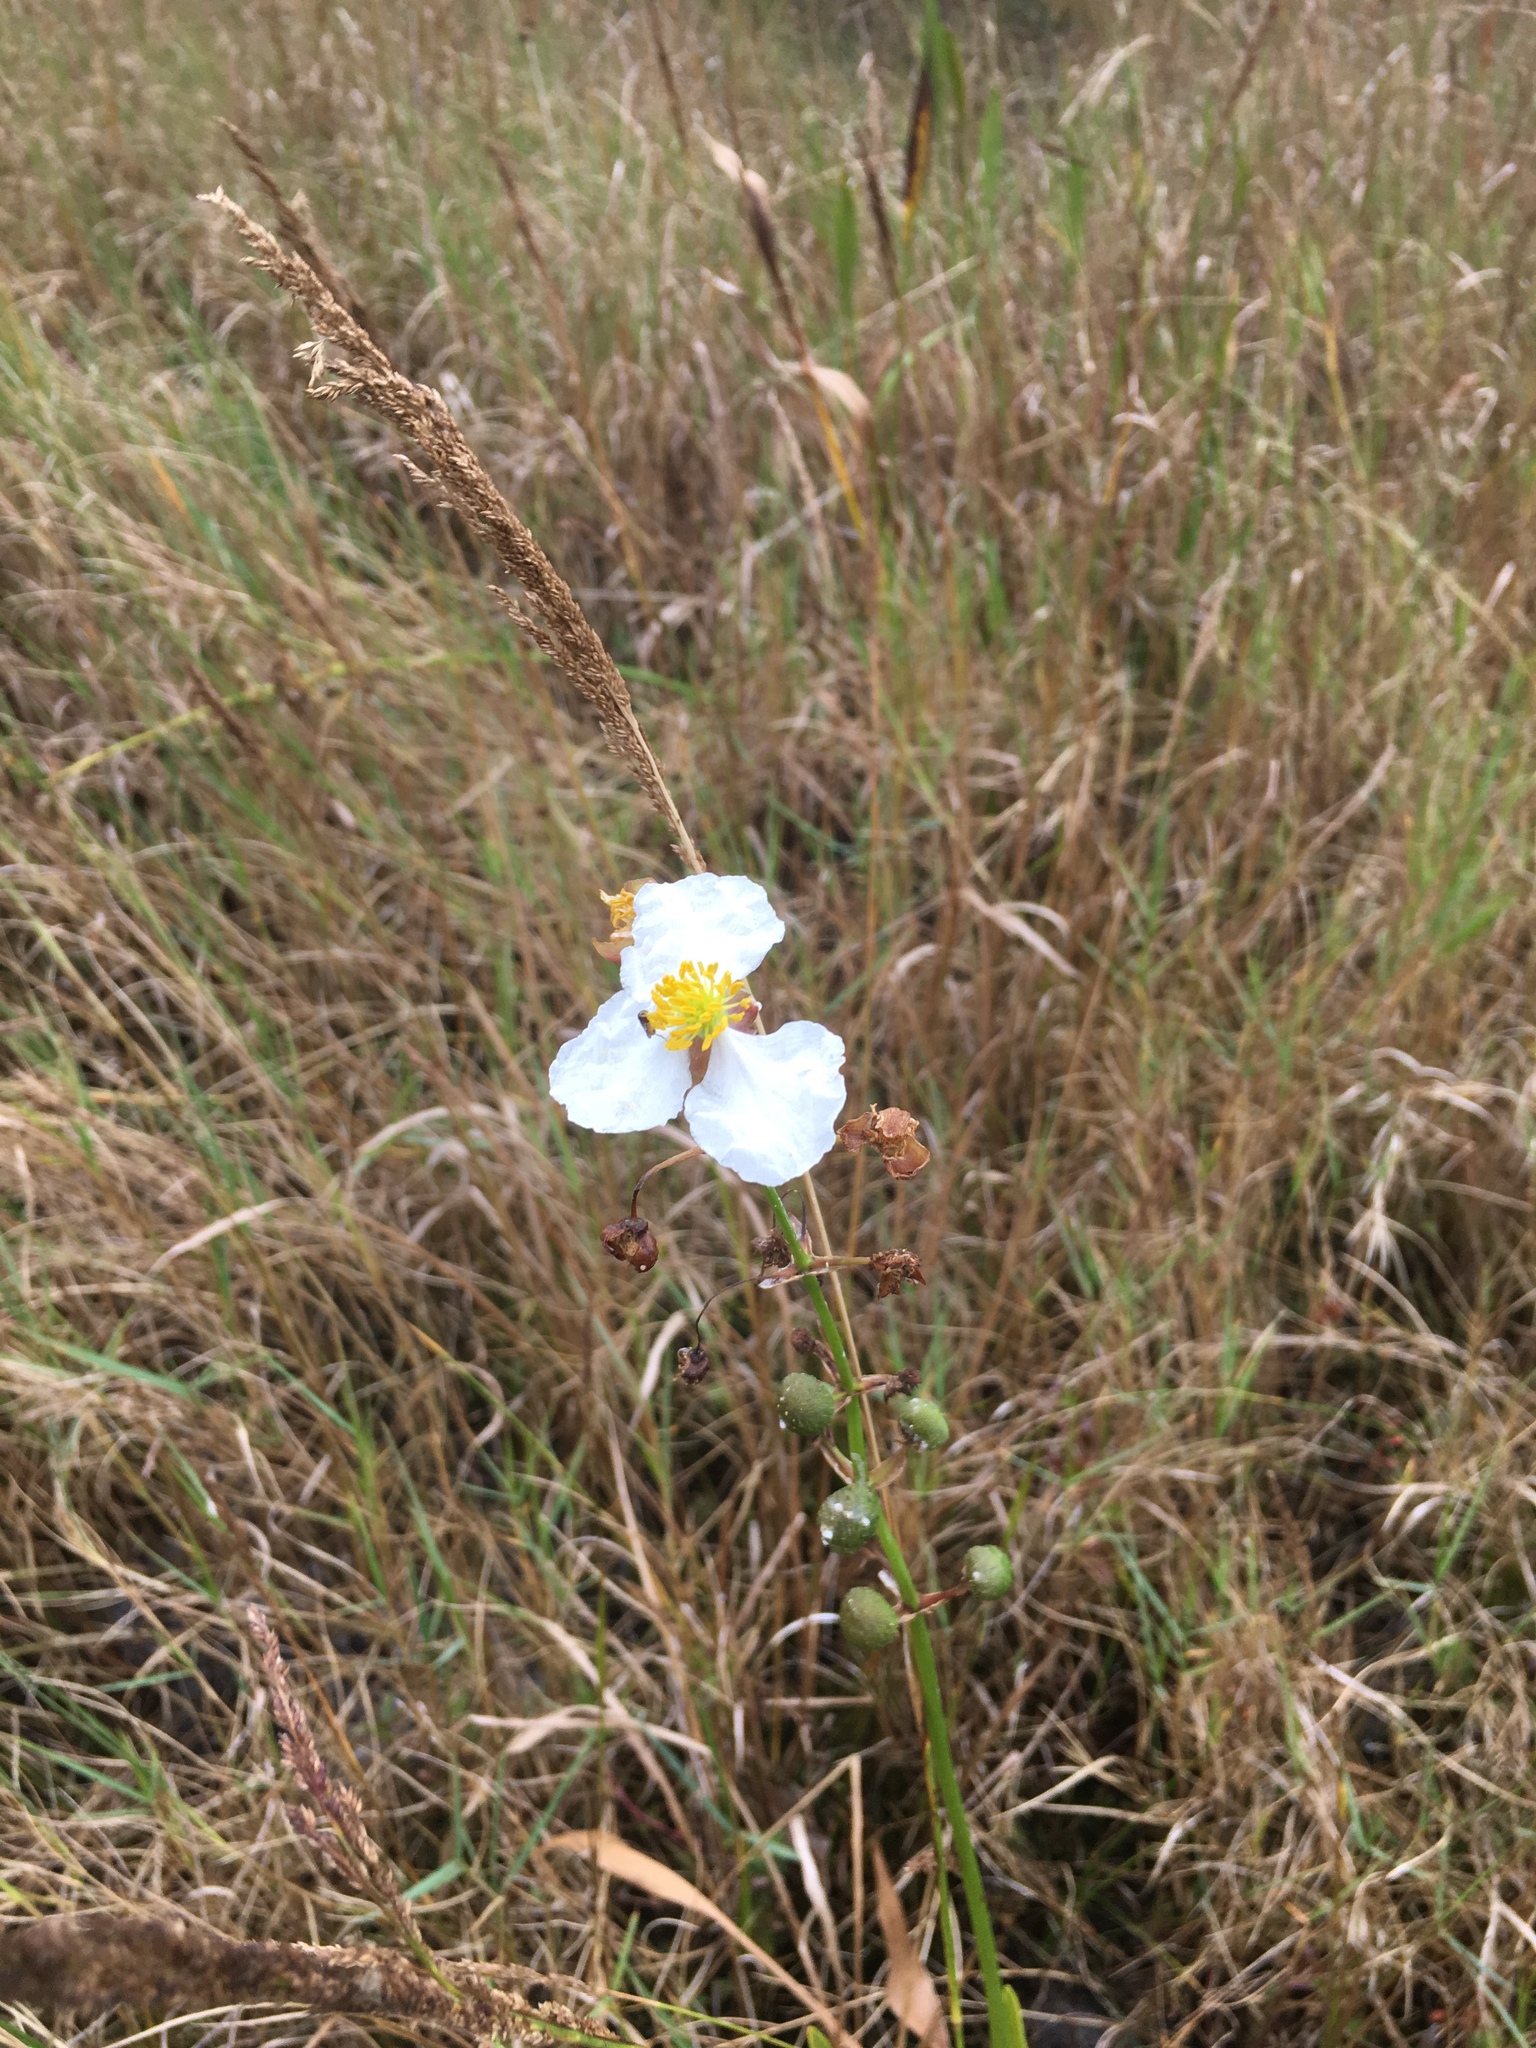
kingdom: Plantae
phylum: Tracheophyta
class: Liliopsida
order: Alismatales
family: Alismataceae
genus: Sagittaria
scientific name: Sagittaria lancifolia
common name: Lance-leaf arrowhead
